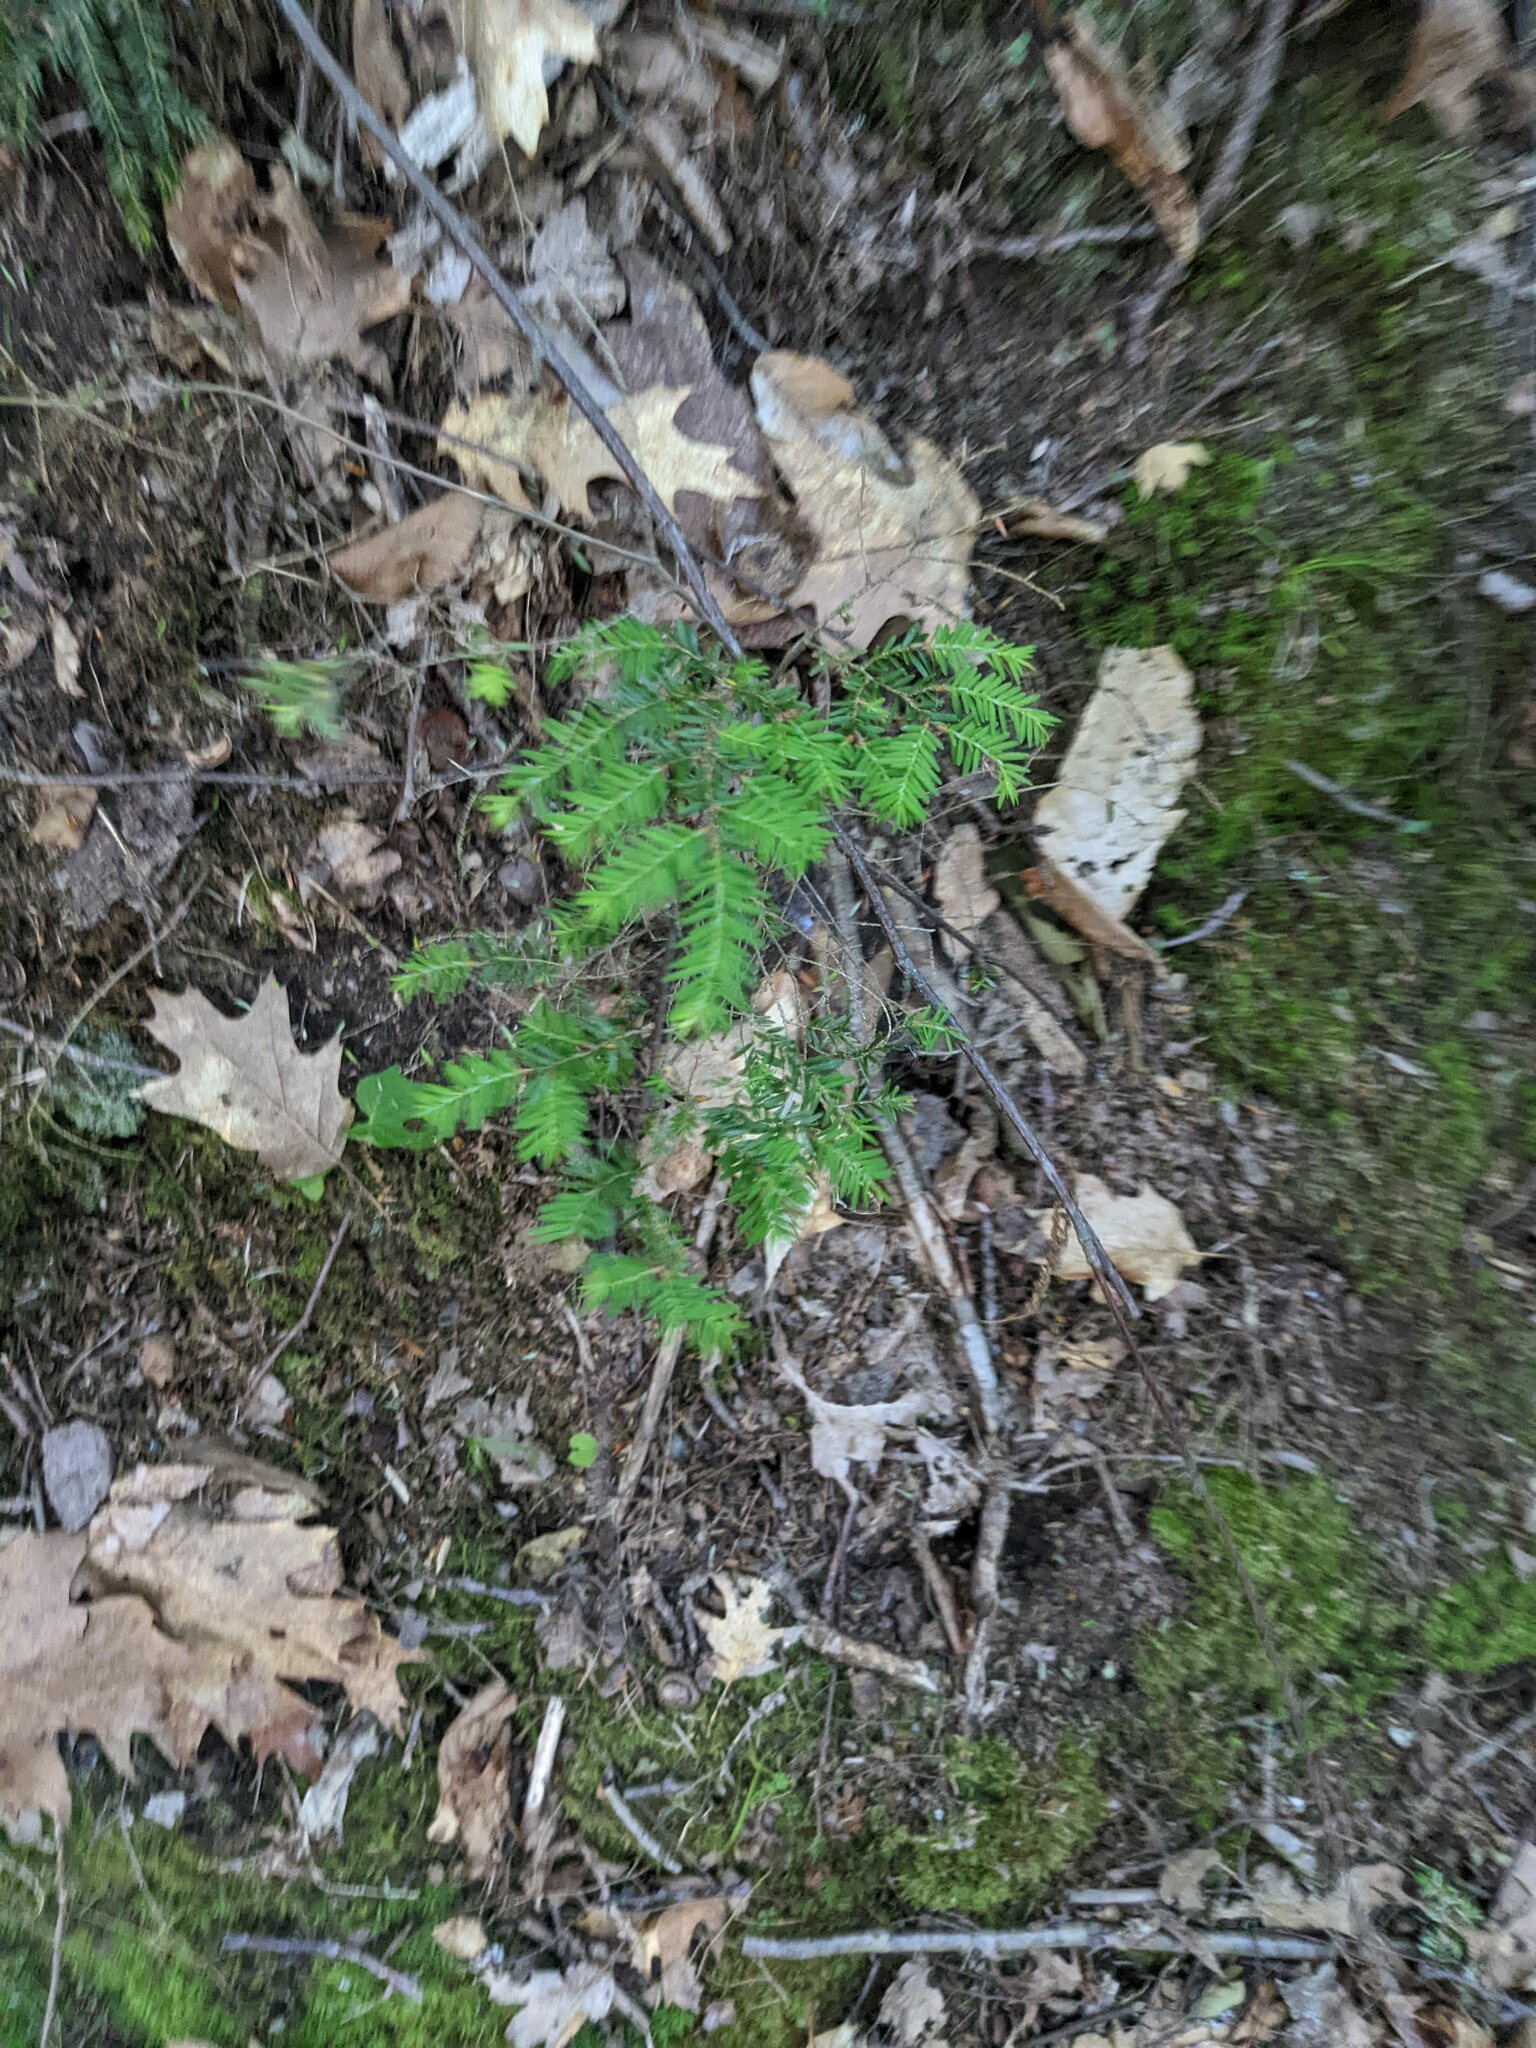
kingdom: Plantae
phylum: Tracheophyta
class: Pinopsida
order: Pinales
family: Pinaceae
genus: Tsuga
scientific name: Tsuga canadensis
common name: Eastern hemlock
